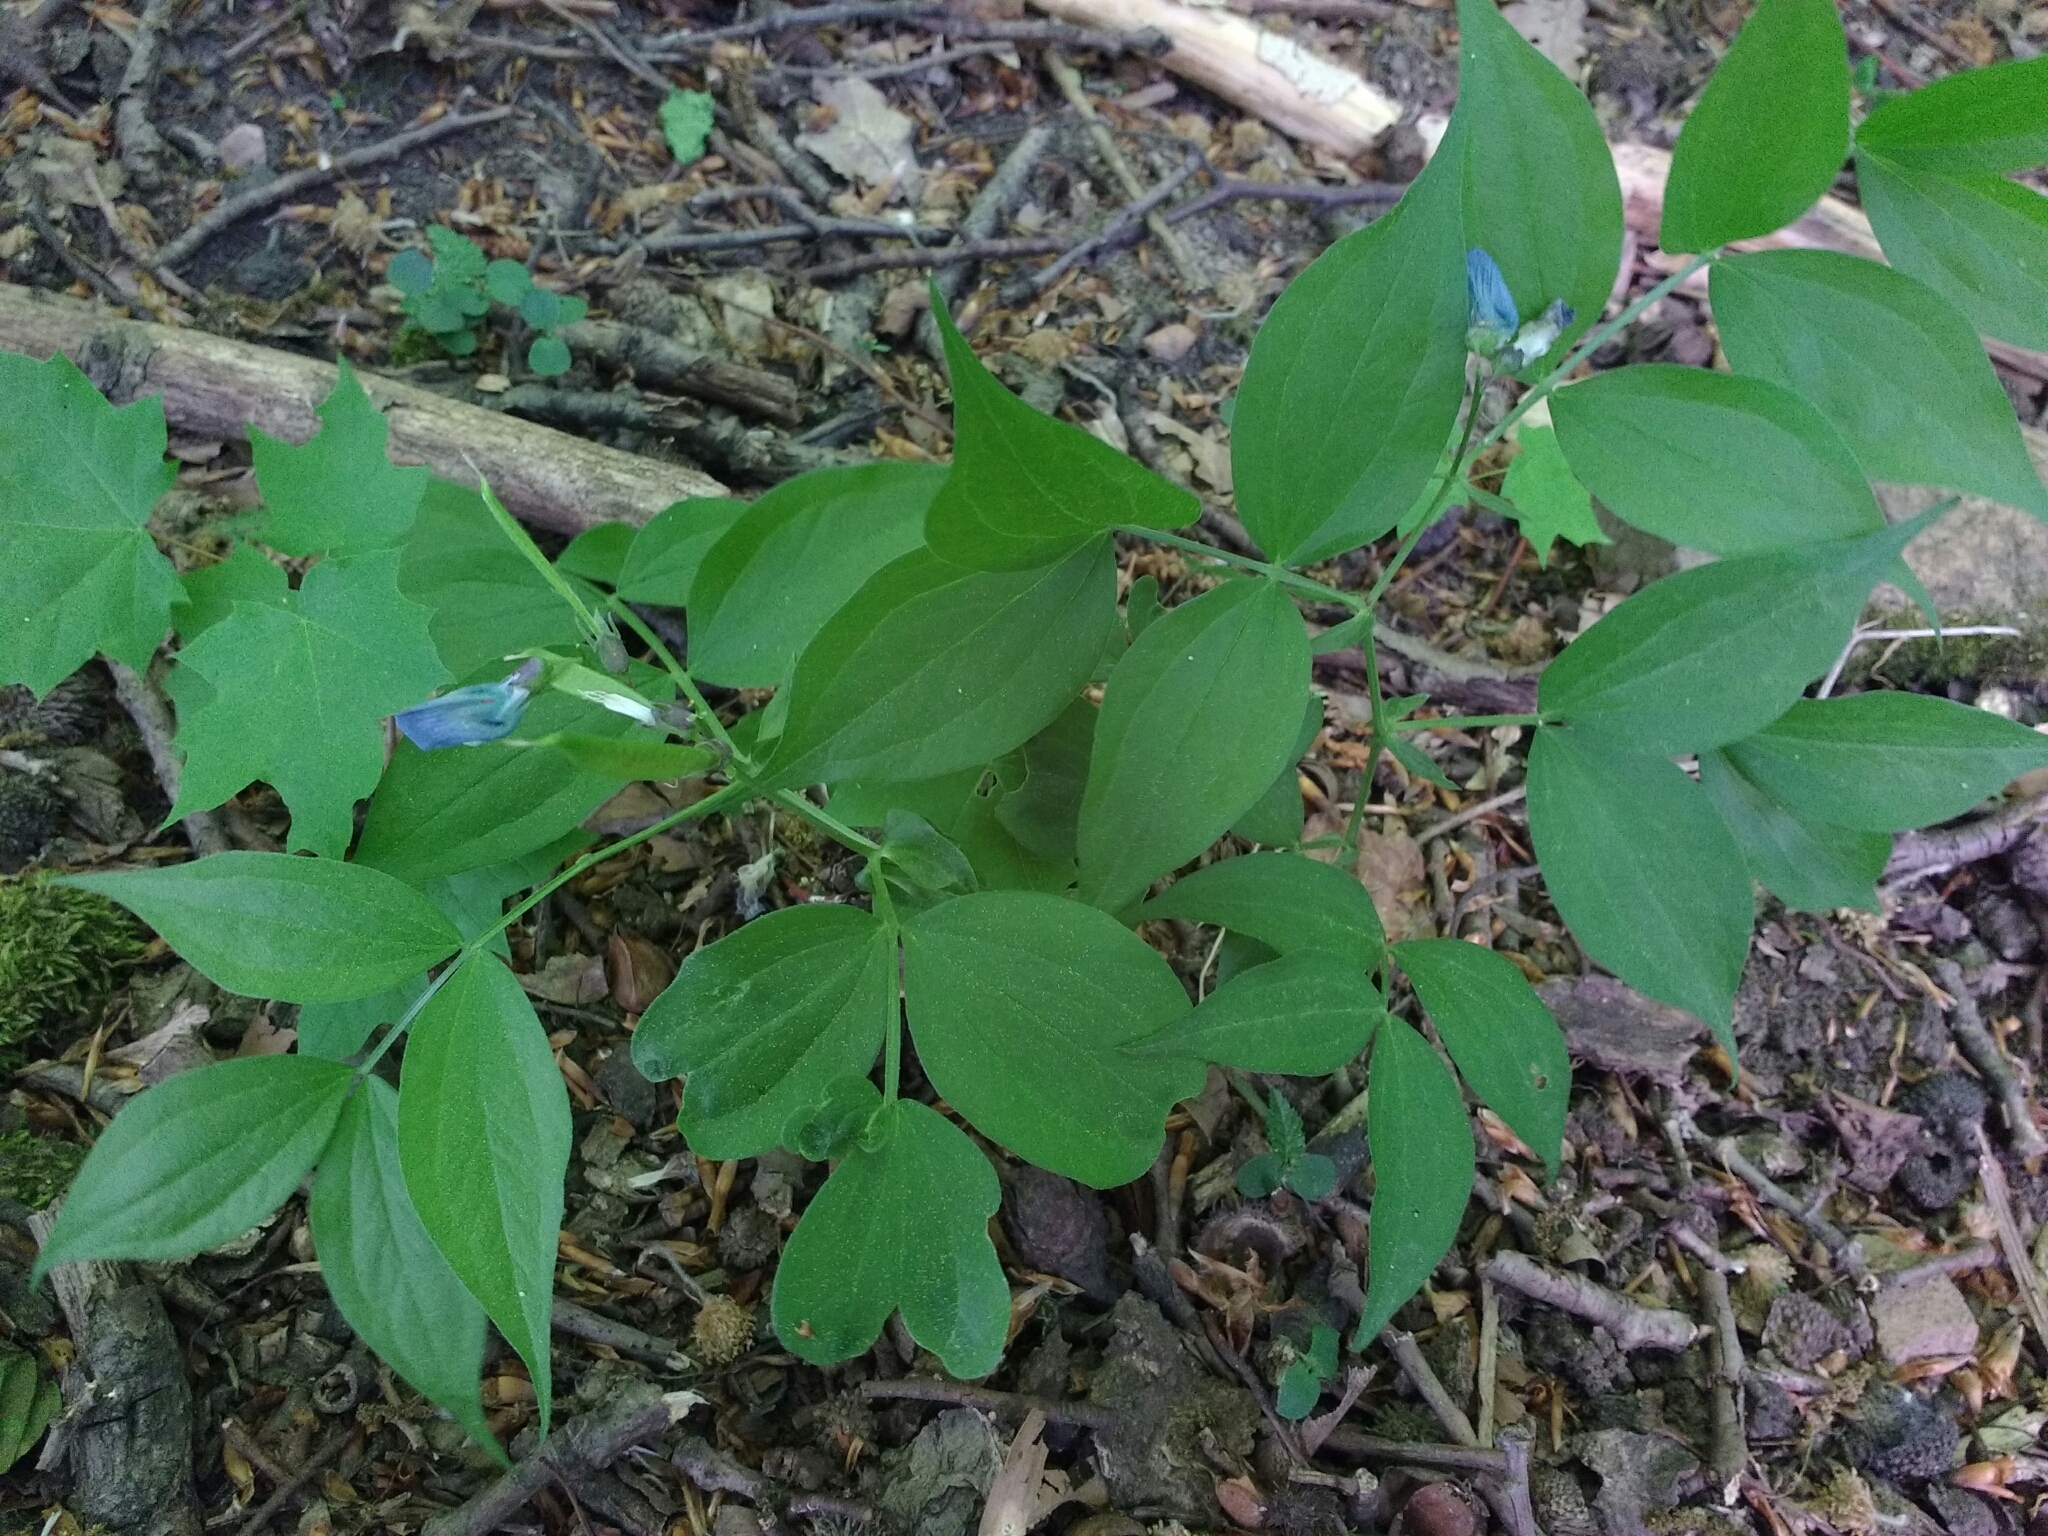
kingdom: Plantae
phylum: Tracheophyta
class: Magnoliopsida
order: Fabales
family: Fabaceae
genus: Lathyrus
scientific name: Lathyrus vernus
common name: Spring pea
